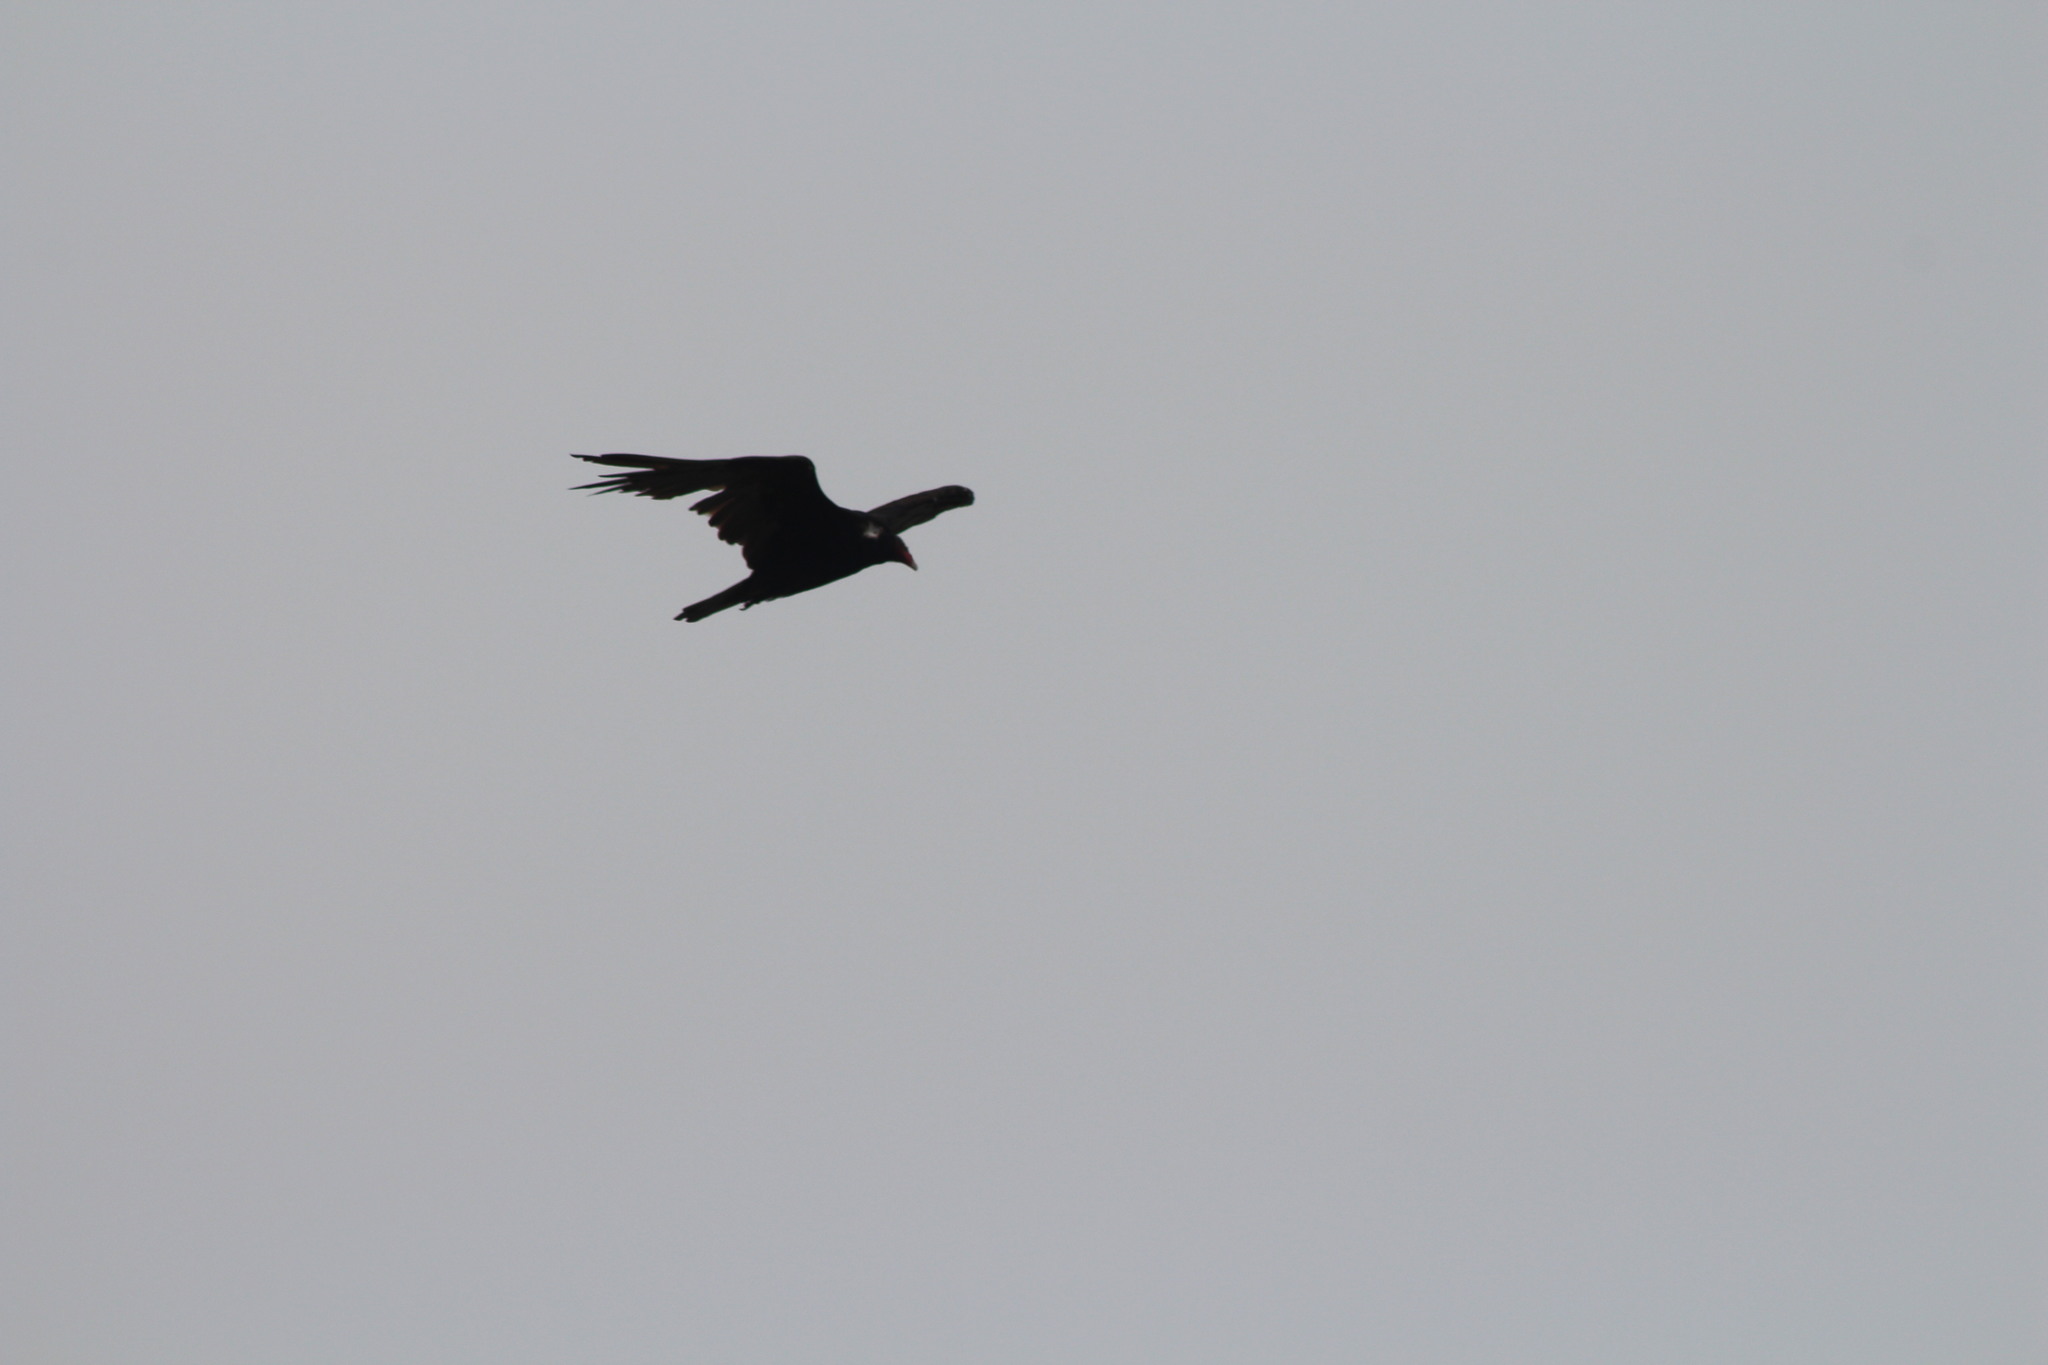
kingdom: Animalia
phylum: Chordata
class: Aves
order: Accipitriformes
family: Cathartidae
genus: Cathartes
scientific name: Cathartes aura
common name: Turkey vulture
